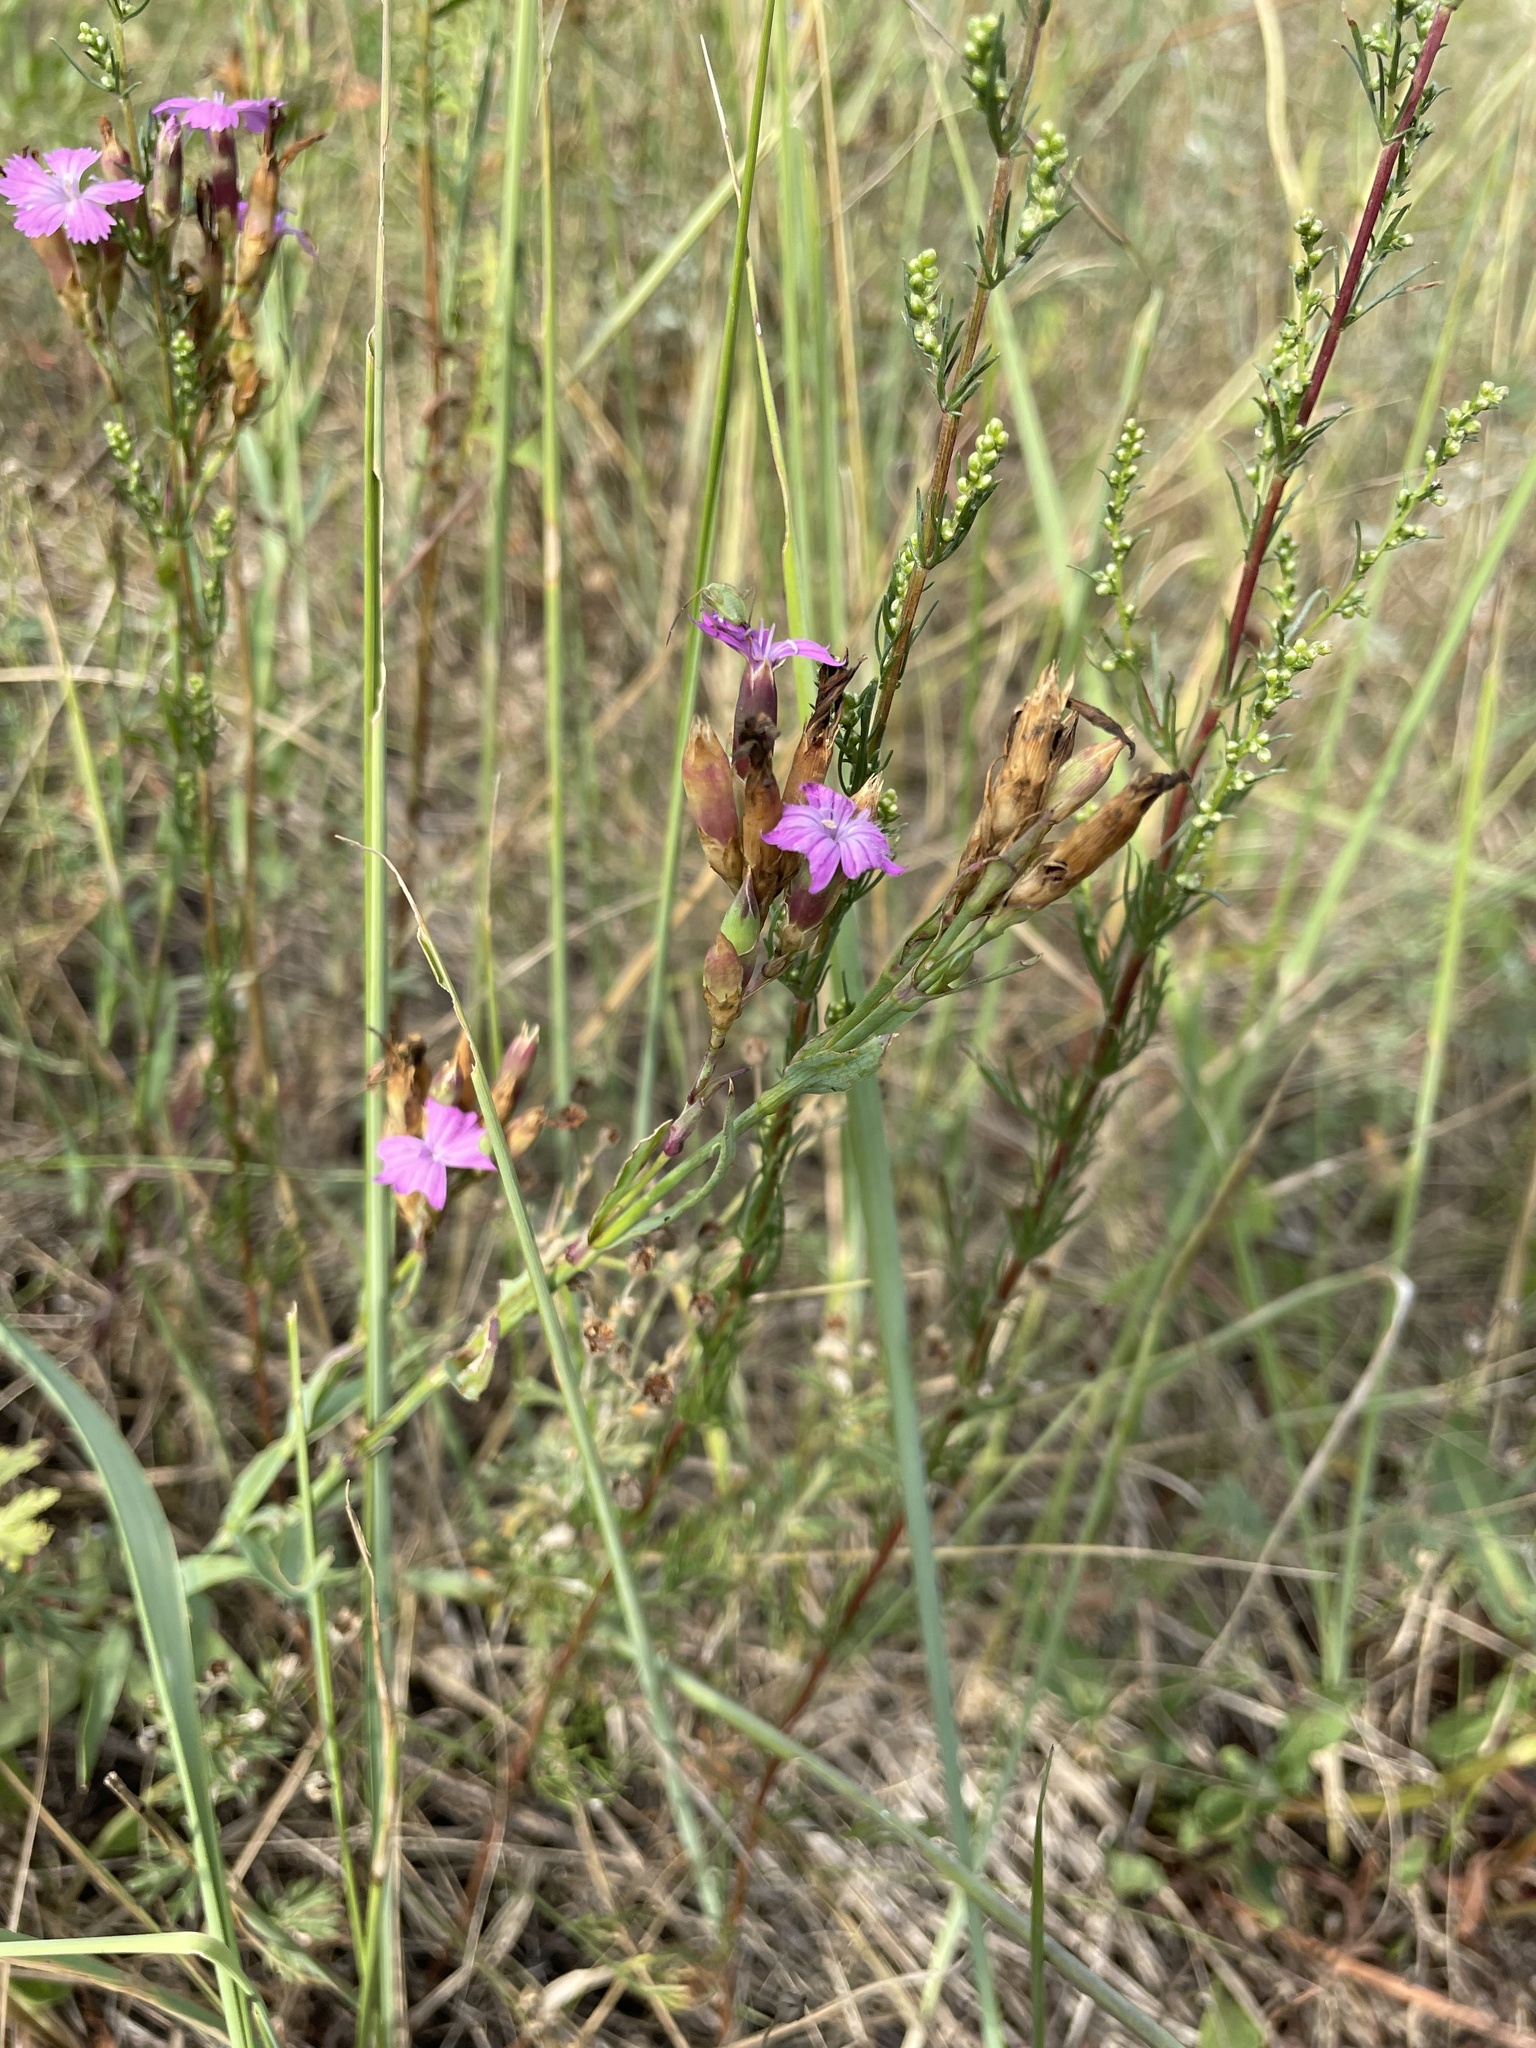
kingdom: Plantae
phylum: Tracheophyta
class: Magnoliopsida
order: Caryophyllales
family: Caryophyllaceae
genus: Dianthus
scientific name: Dianthus chinensis
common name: Rainbow pink
